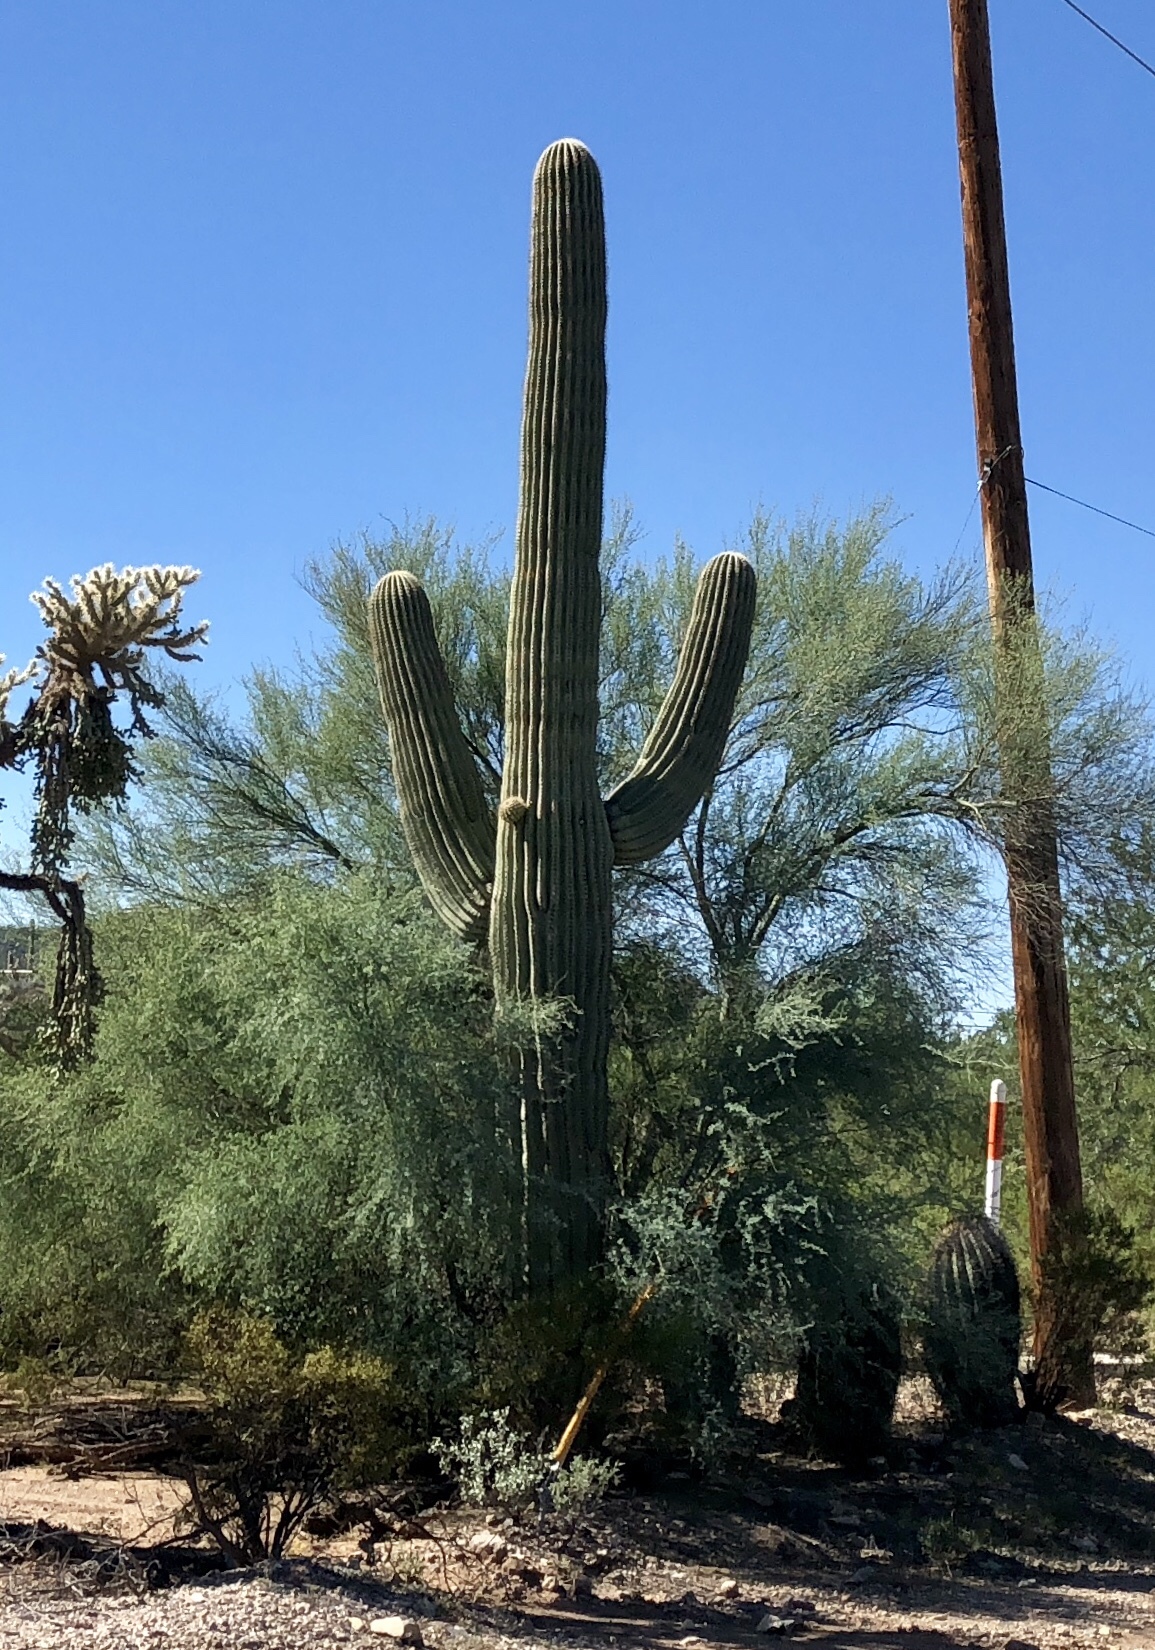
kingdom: Plantae
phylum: Tracheophyta
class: Magnoliopsida
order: Caryophyllales
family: Cactaceae
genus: Carnegiea
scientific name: Carnegiea gigantea
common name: Saguaro
